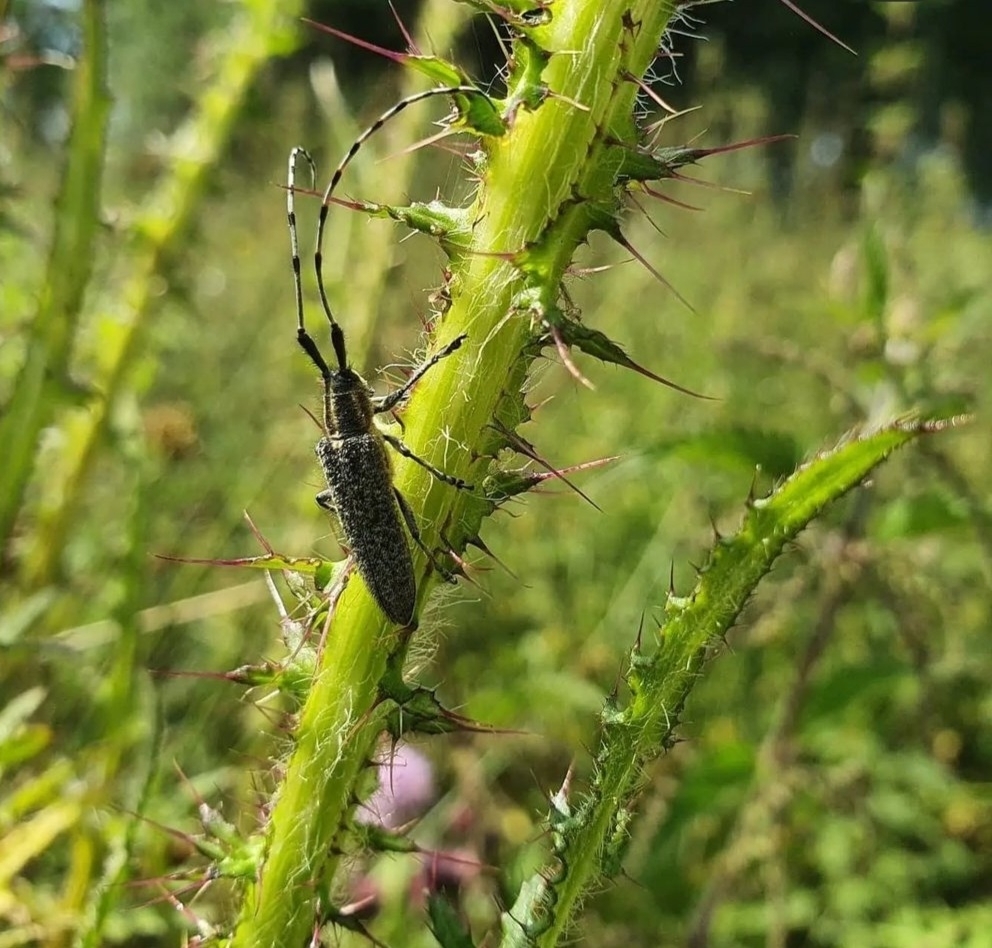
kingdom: Animalia
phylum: Arthropoda
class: Insecta
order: Coleoptera
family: Cerambycidae
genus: Agapanthia
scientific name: Agapanthia villosoviridescens
